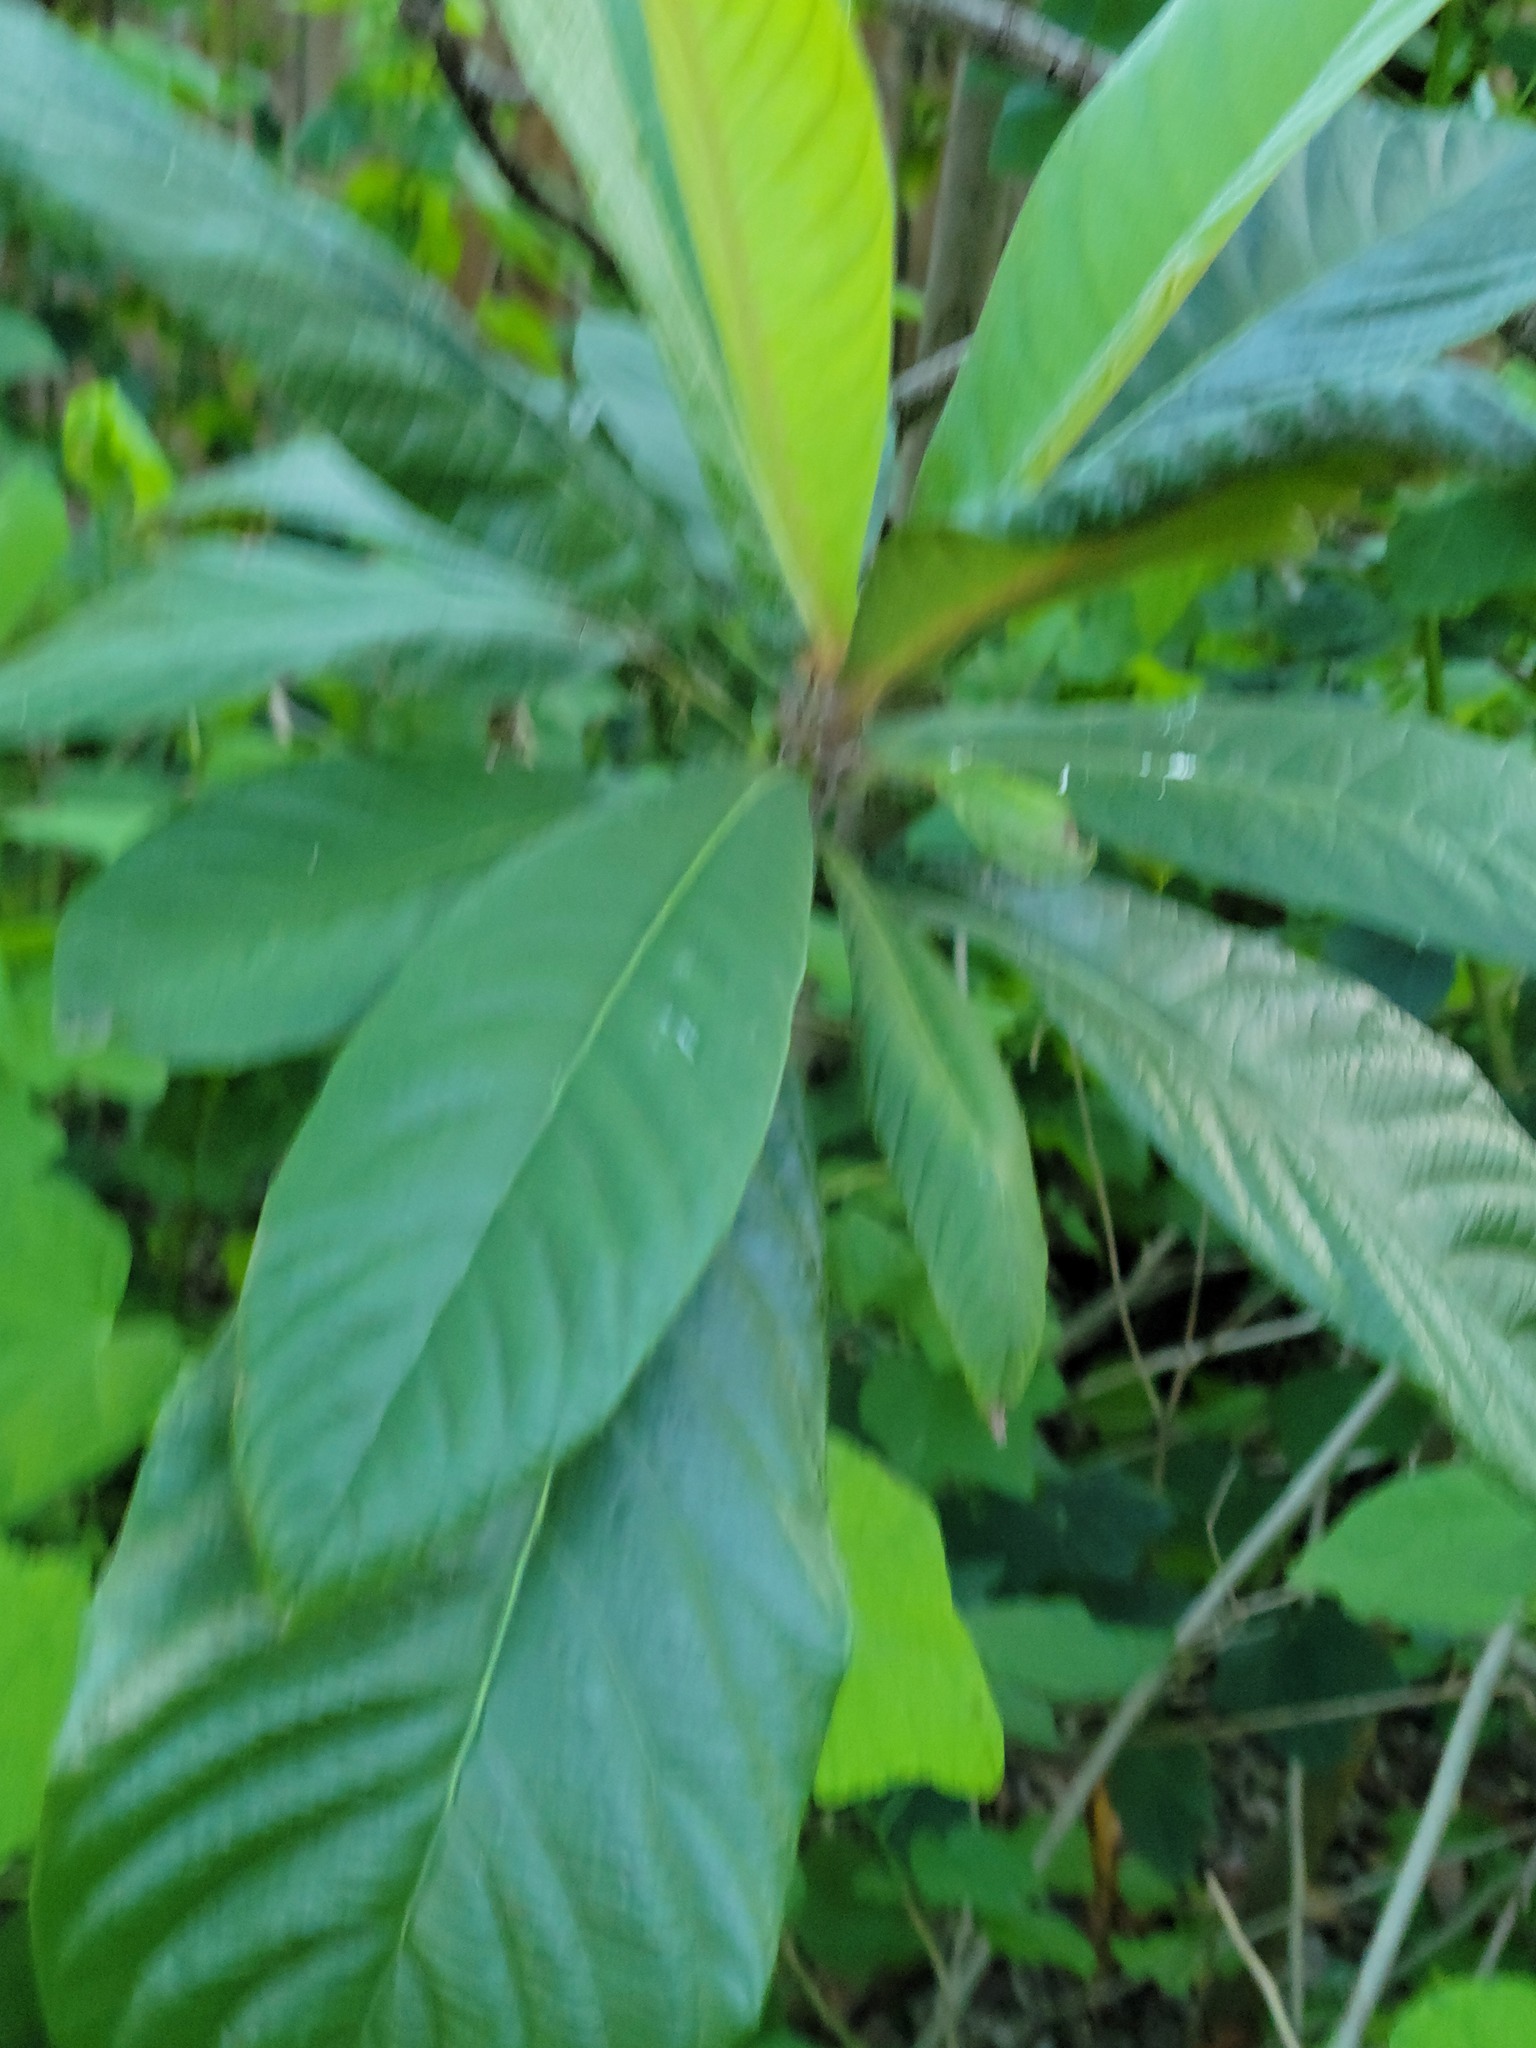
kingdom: Plantae
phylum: Tracheophyta
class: Magnoliopsida
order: Rosales
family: Rosaceae
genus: Rhaphiolepis
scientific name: Rhaphiolepis bibas
